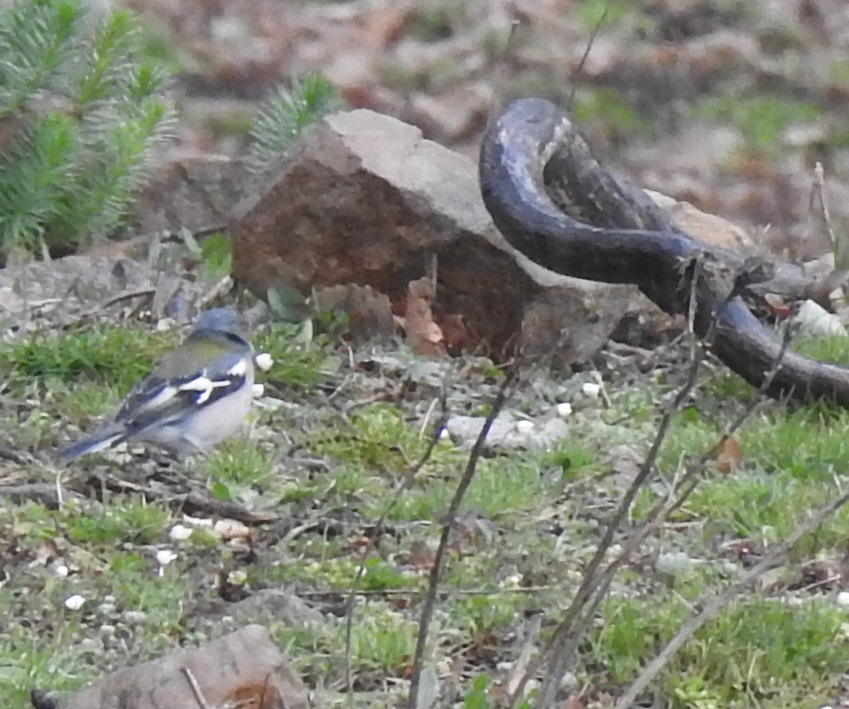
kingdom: Animalia
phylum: Chordata
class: Aves
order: Passeriformes
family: Fringillidae
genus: Fringilla
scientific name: Fringilla spodiogenys
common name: African chaffinch
